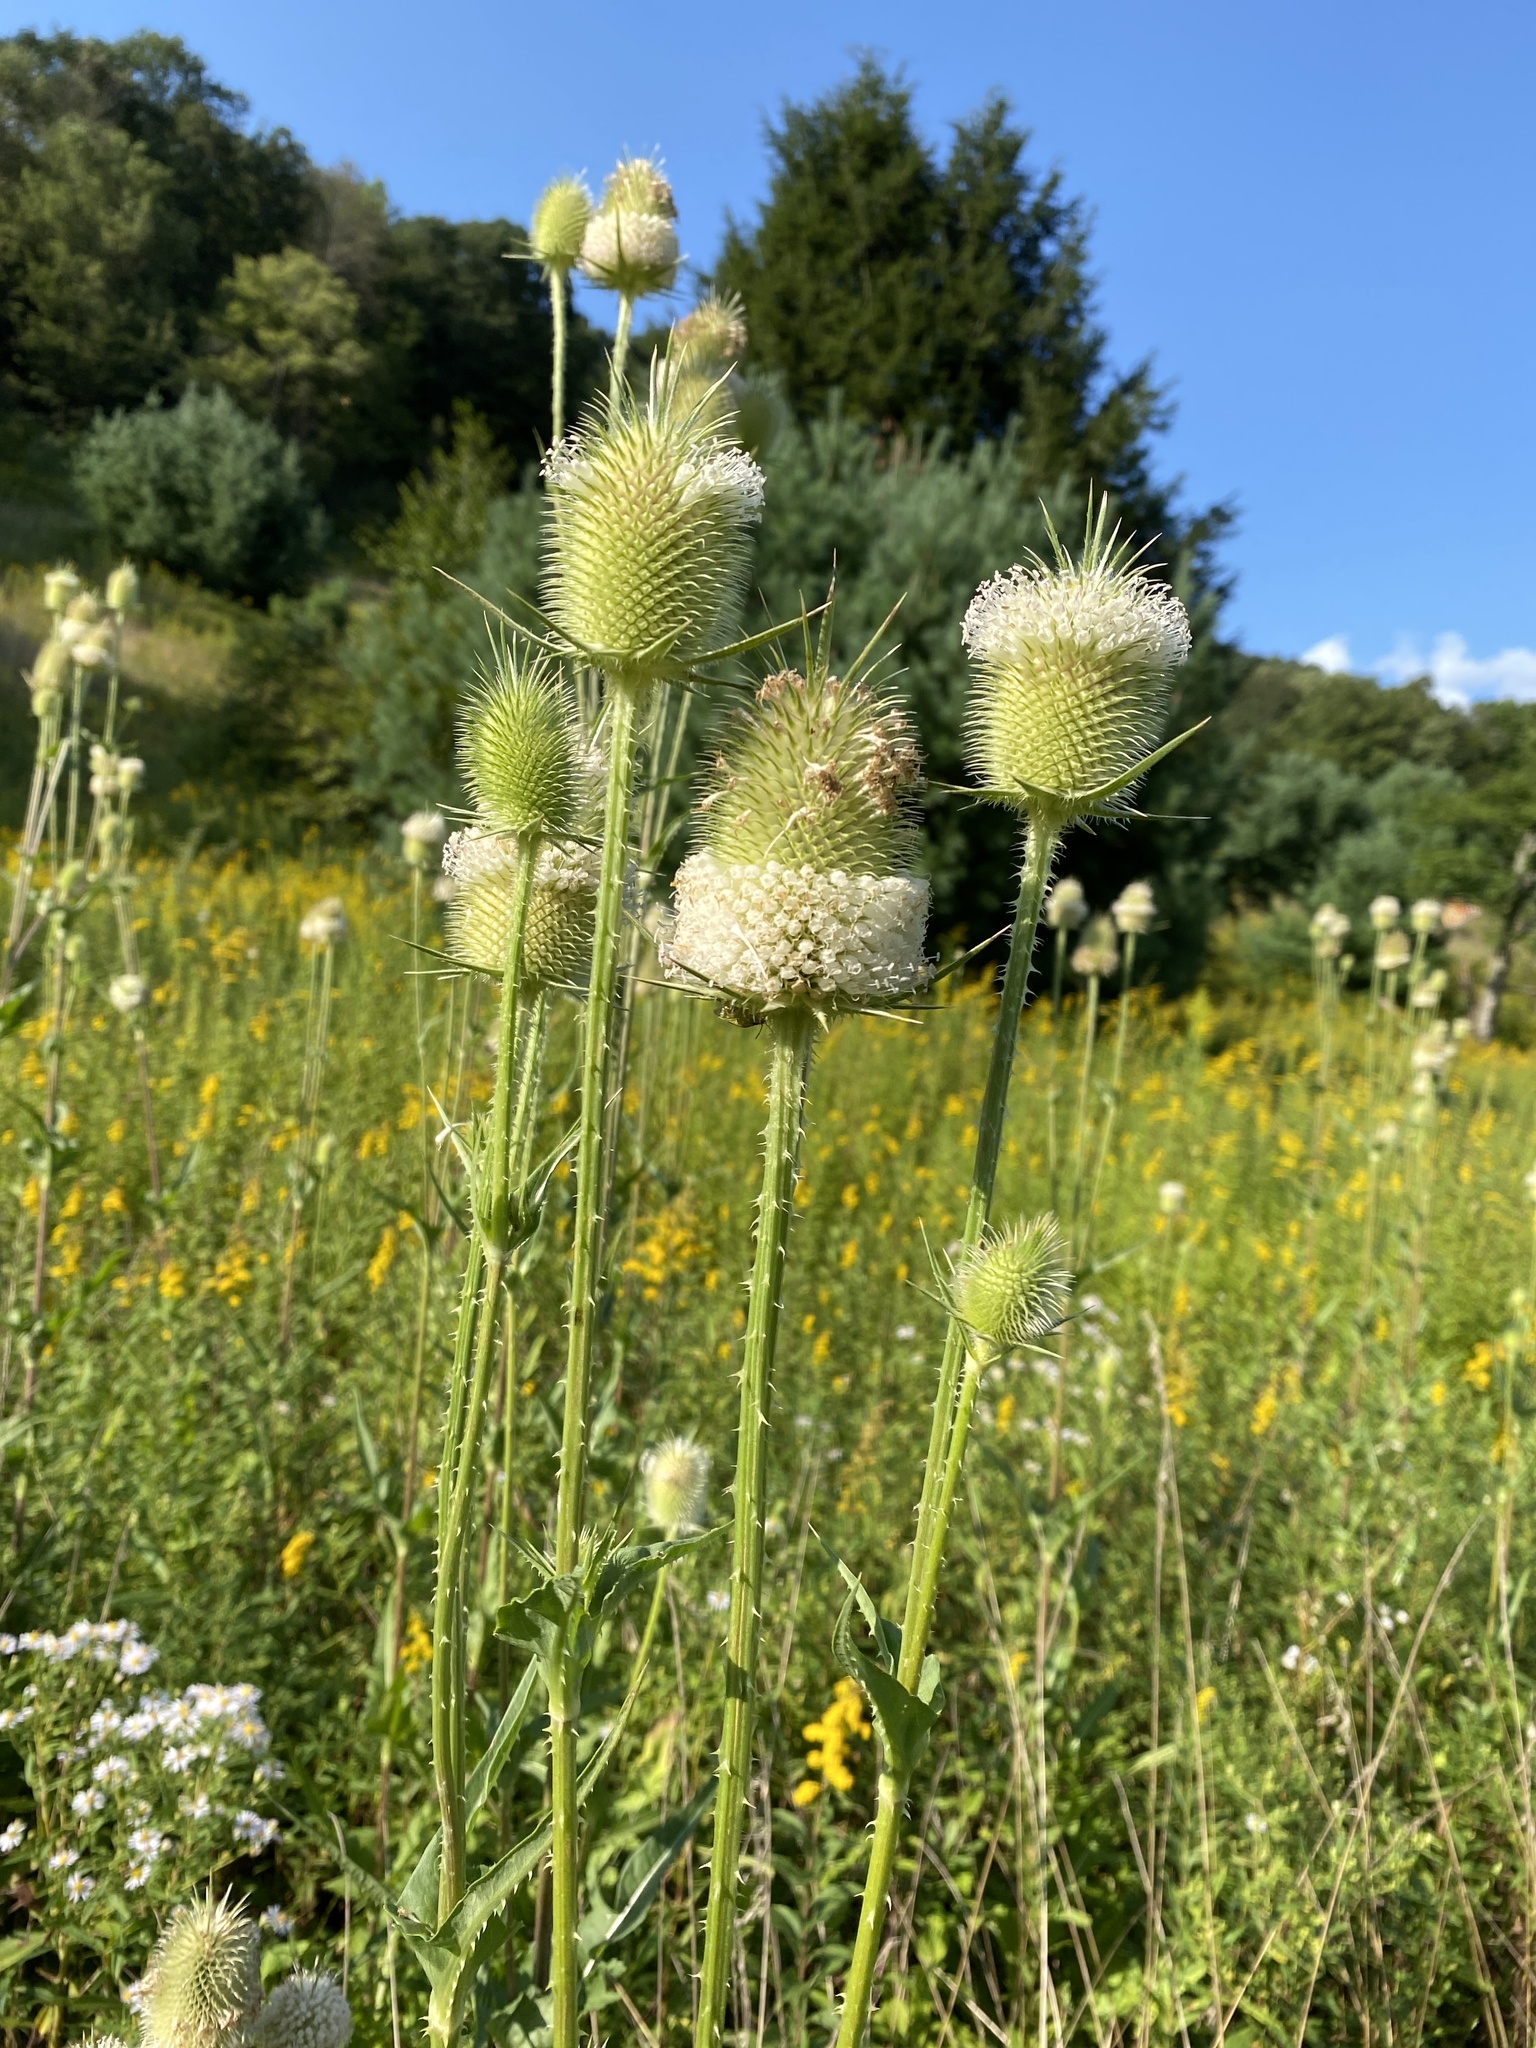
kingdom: Plantae
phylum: Tracheophyta
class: Magnoliopsida
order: Dipsacales
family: Caprifoliaceae
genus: Dipsacus
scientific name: Dipsacus laciniatus
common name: Cut-leaved teasel
